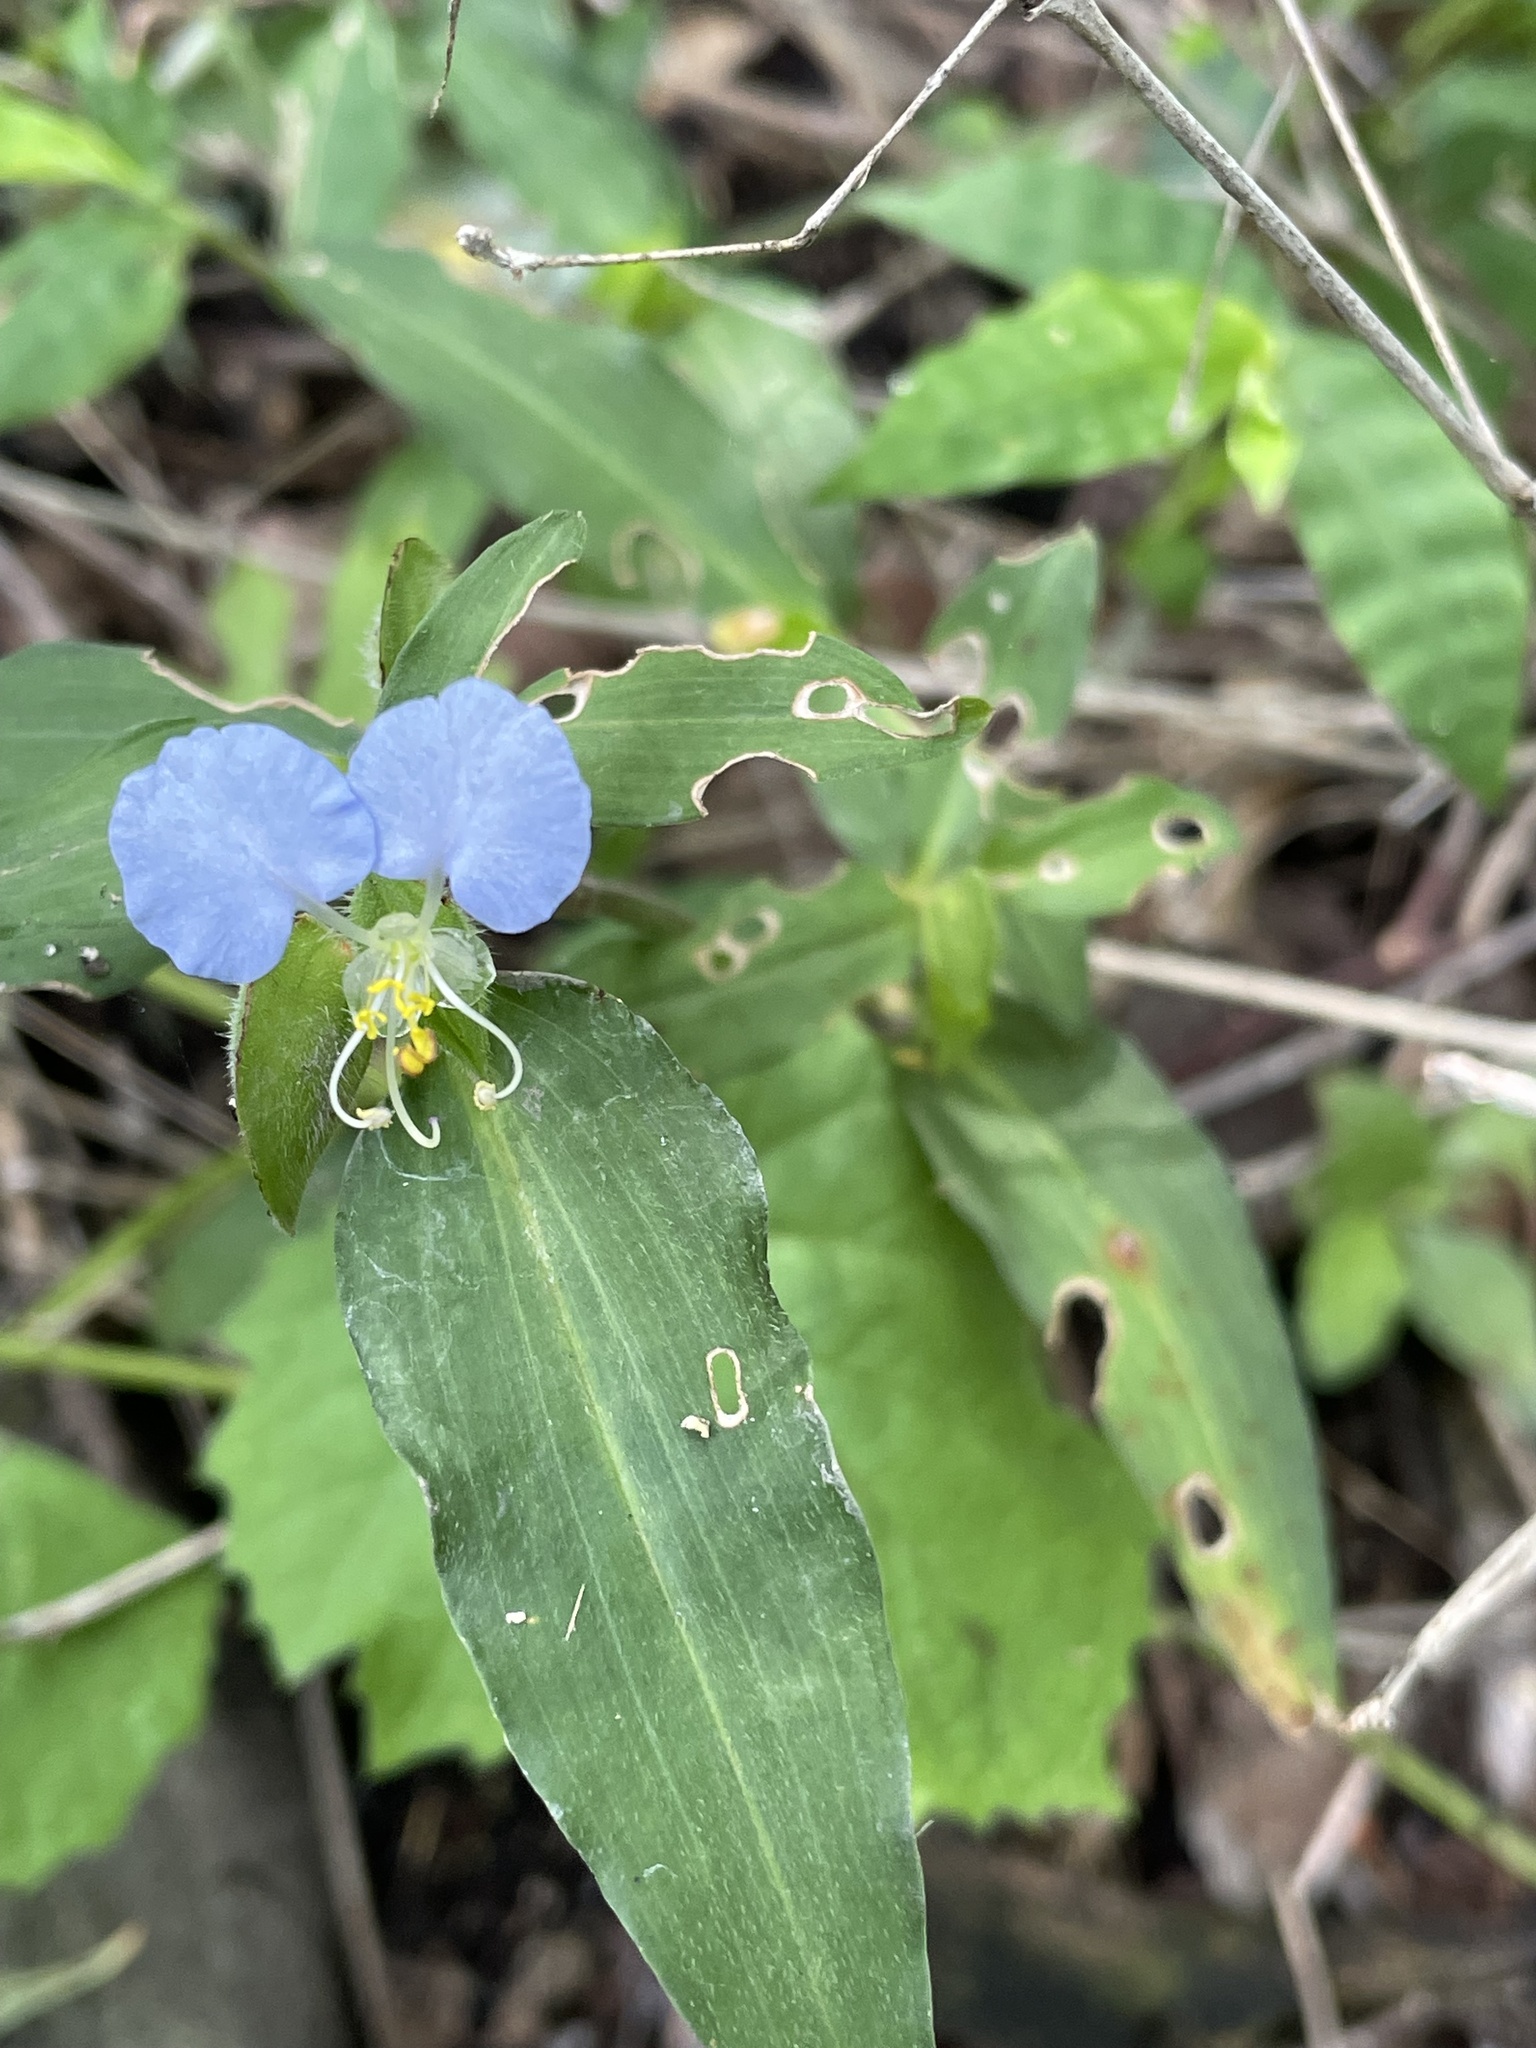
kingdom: Plantae
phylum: Tracheophyta
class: Liliopsida
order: Commelinales
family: Commelinaceae
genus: Commelina
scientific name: Commelina erecta
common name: Blousel blommetjie
